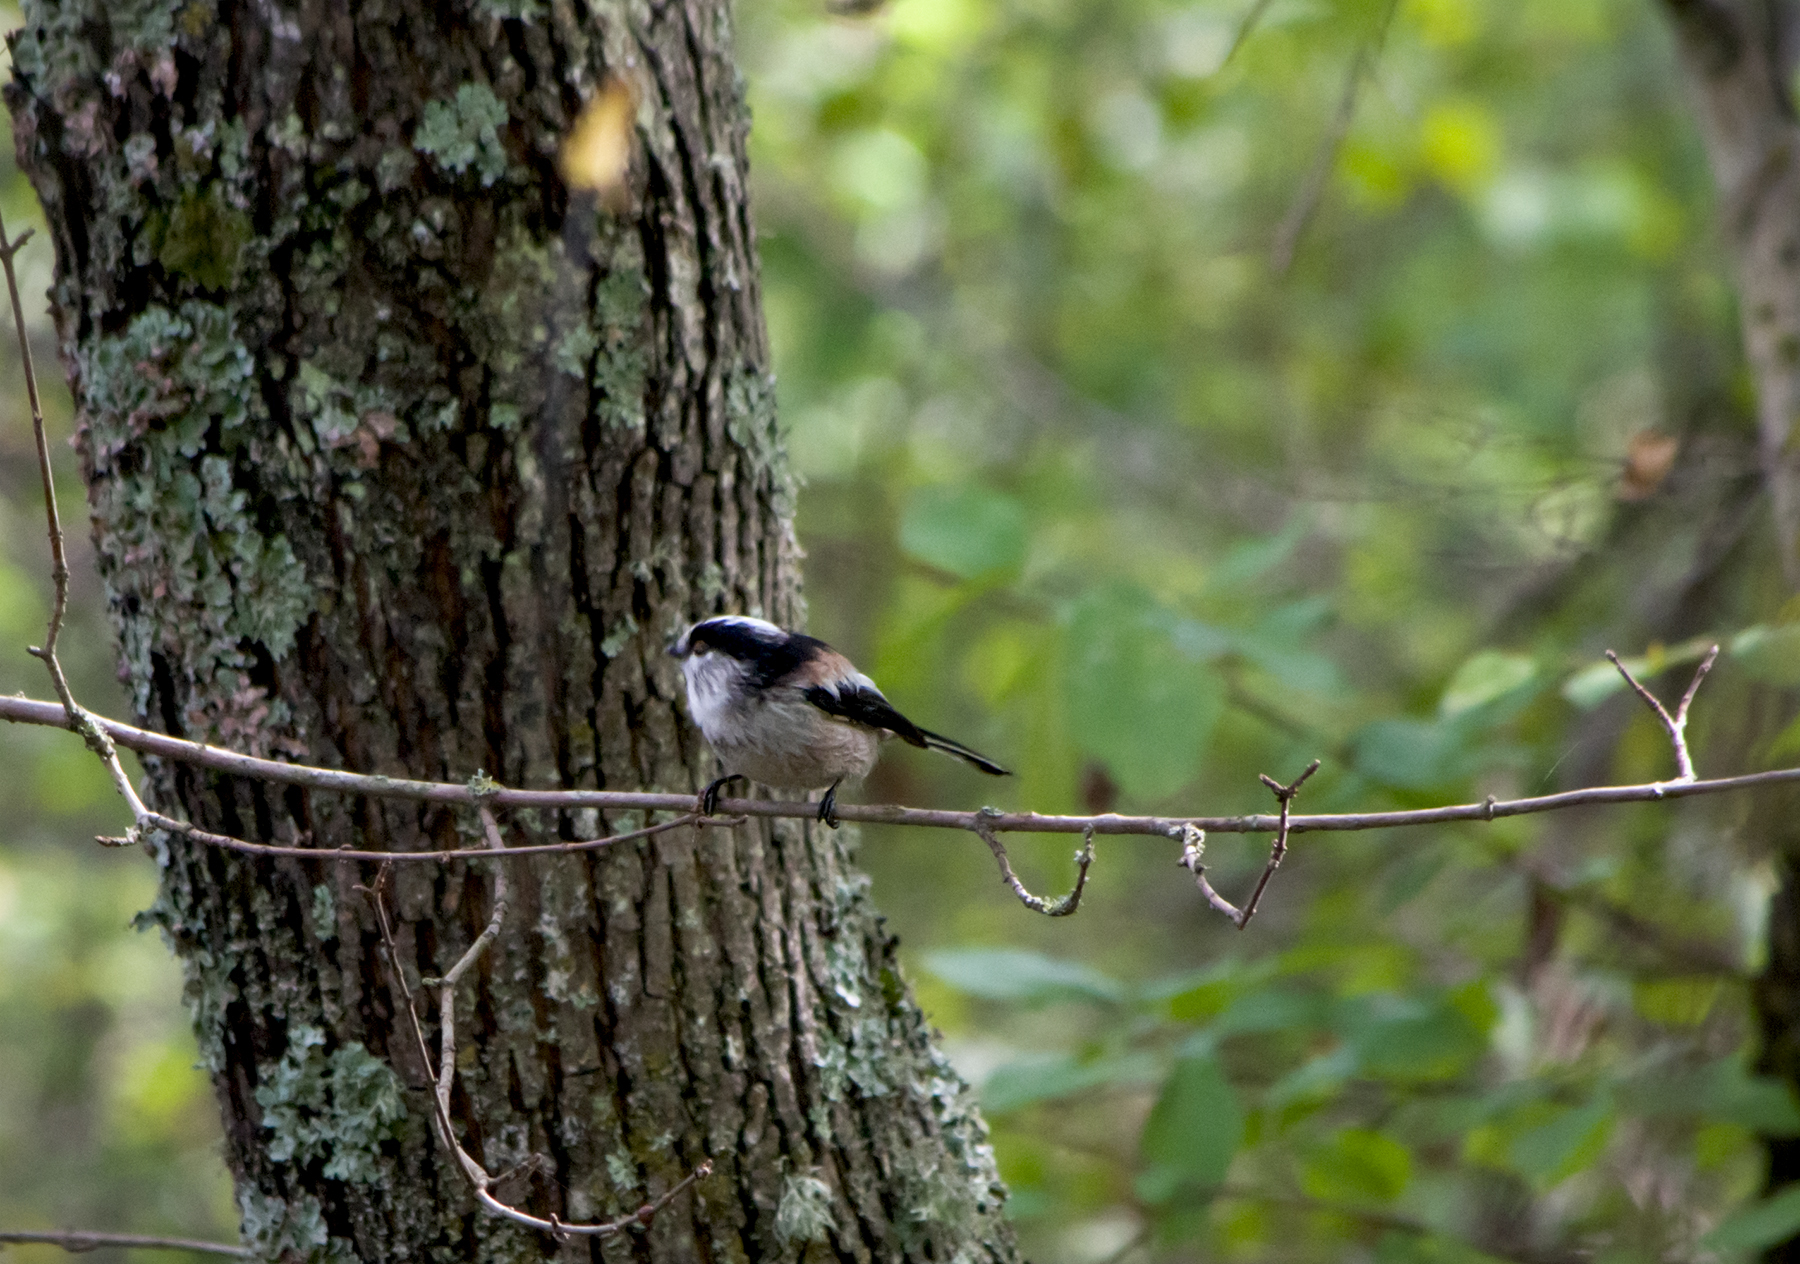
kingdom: Animalia
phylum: Chordata
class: Aves
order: Passeriformes
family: Aegithalidae
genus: Aegithalos
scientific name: Aegithalos caudatus
